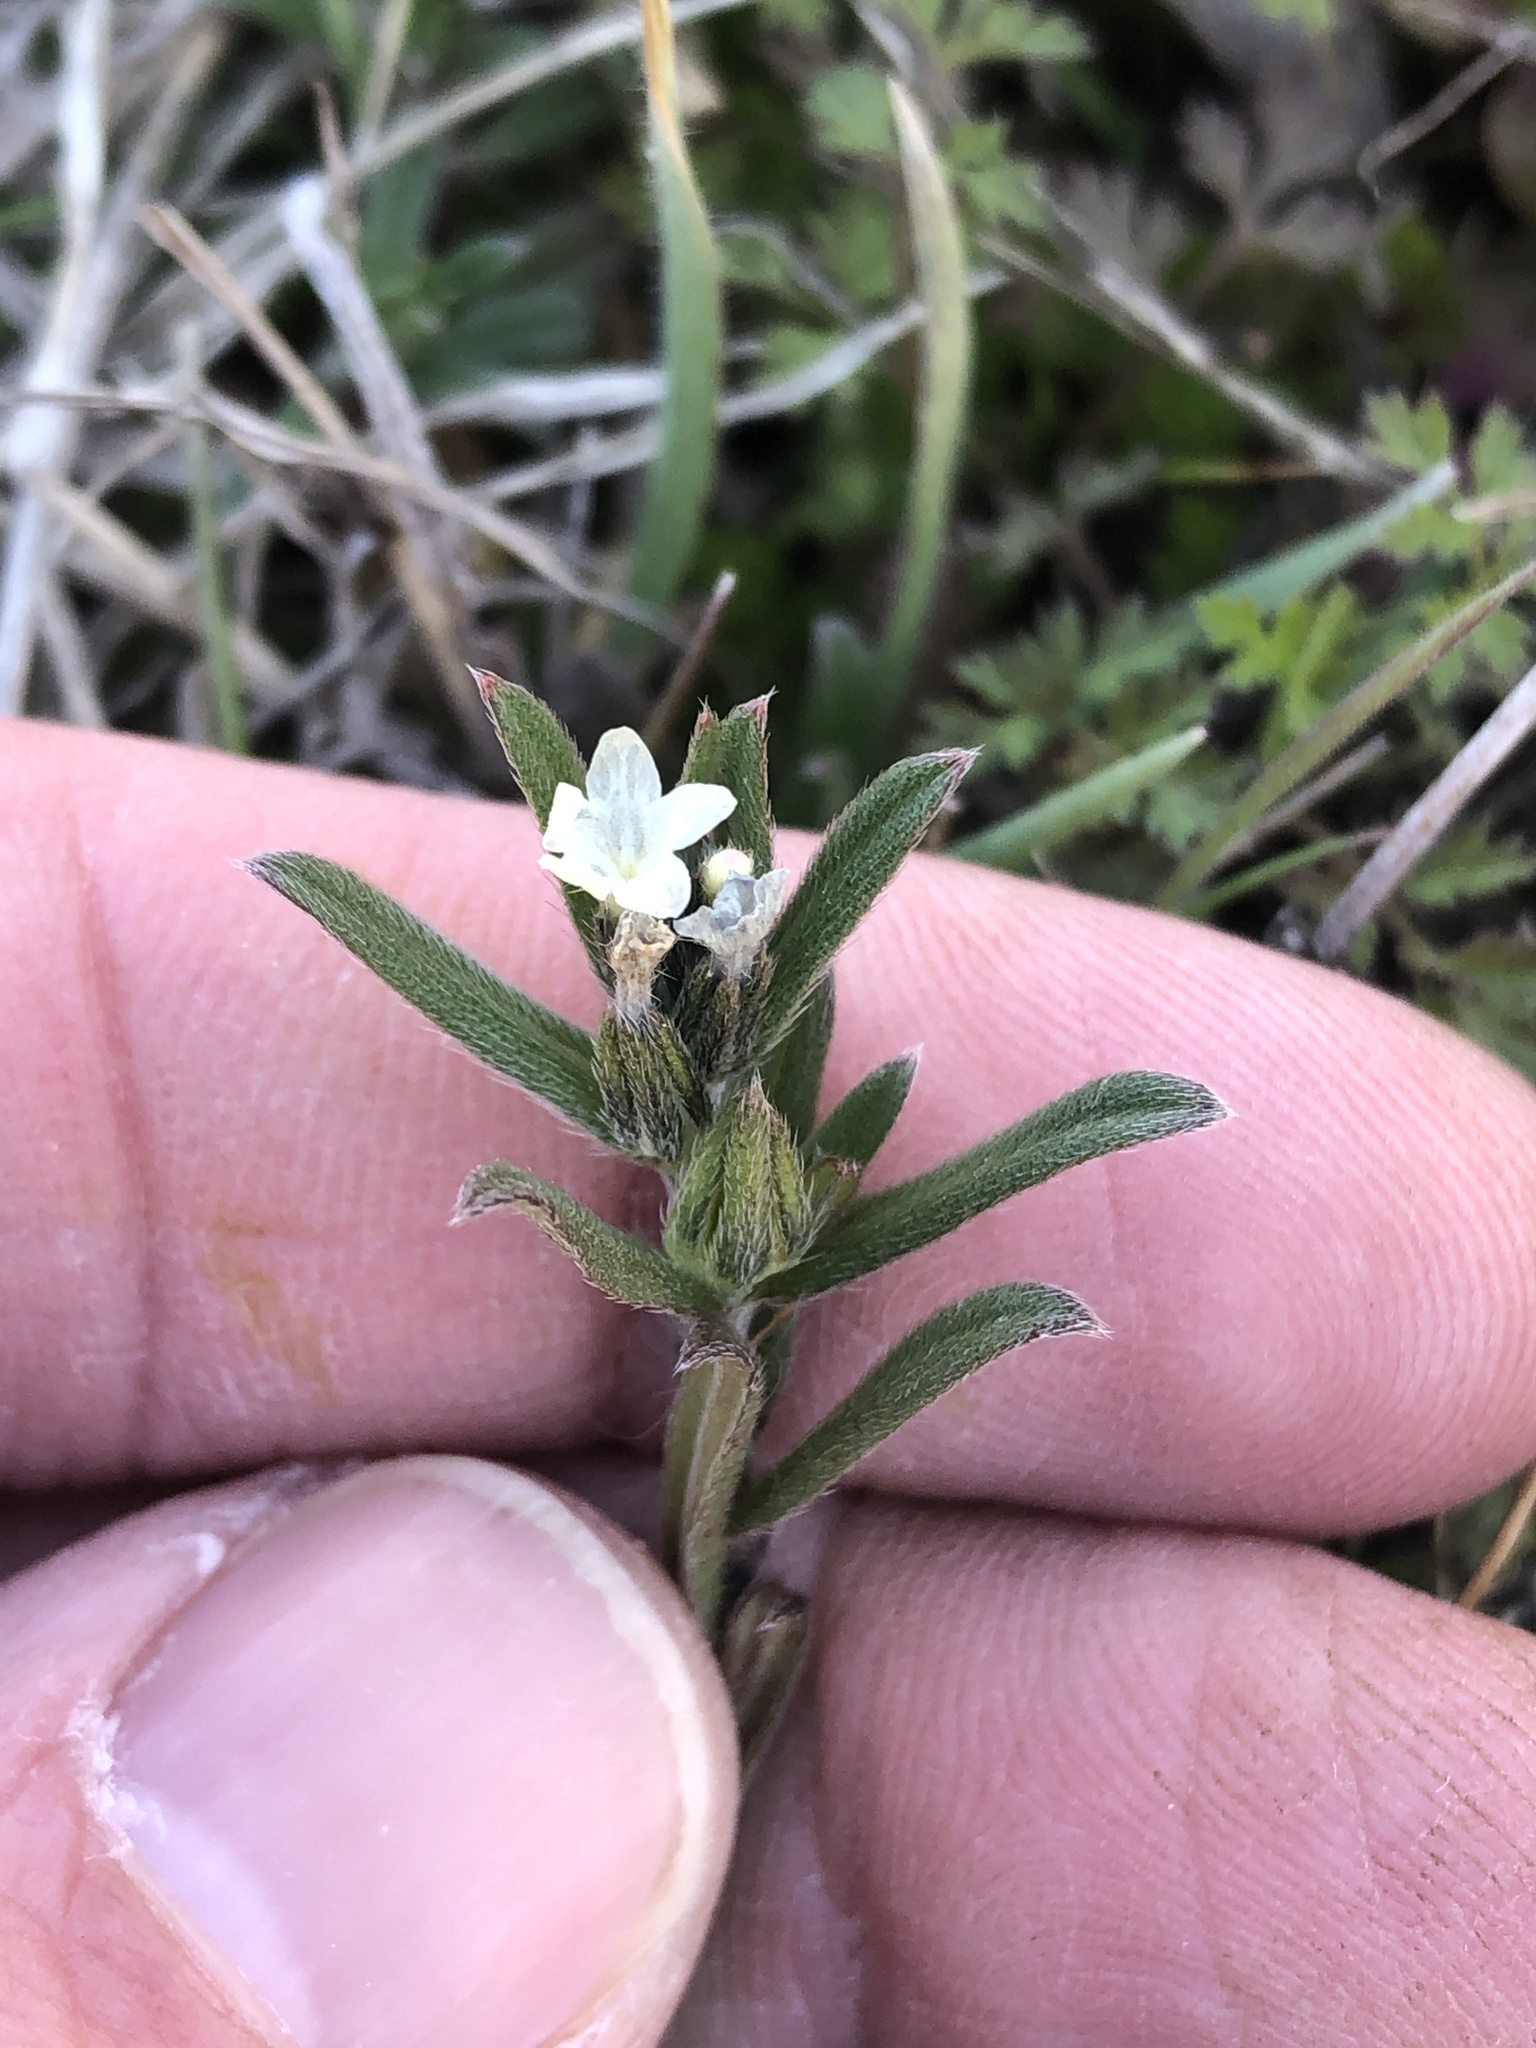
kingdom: Plantae
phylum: Tracheophyta
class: Magnoliopsida
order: Boraginales
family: Boraginaceae
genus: Buglossoides
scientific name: Buglossoides arvensis
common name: Corn gromwell
